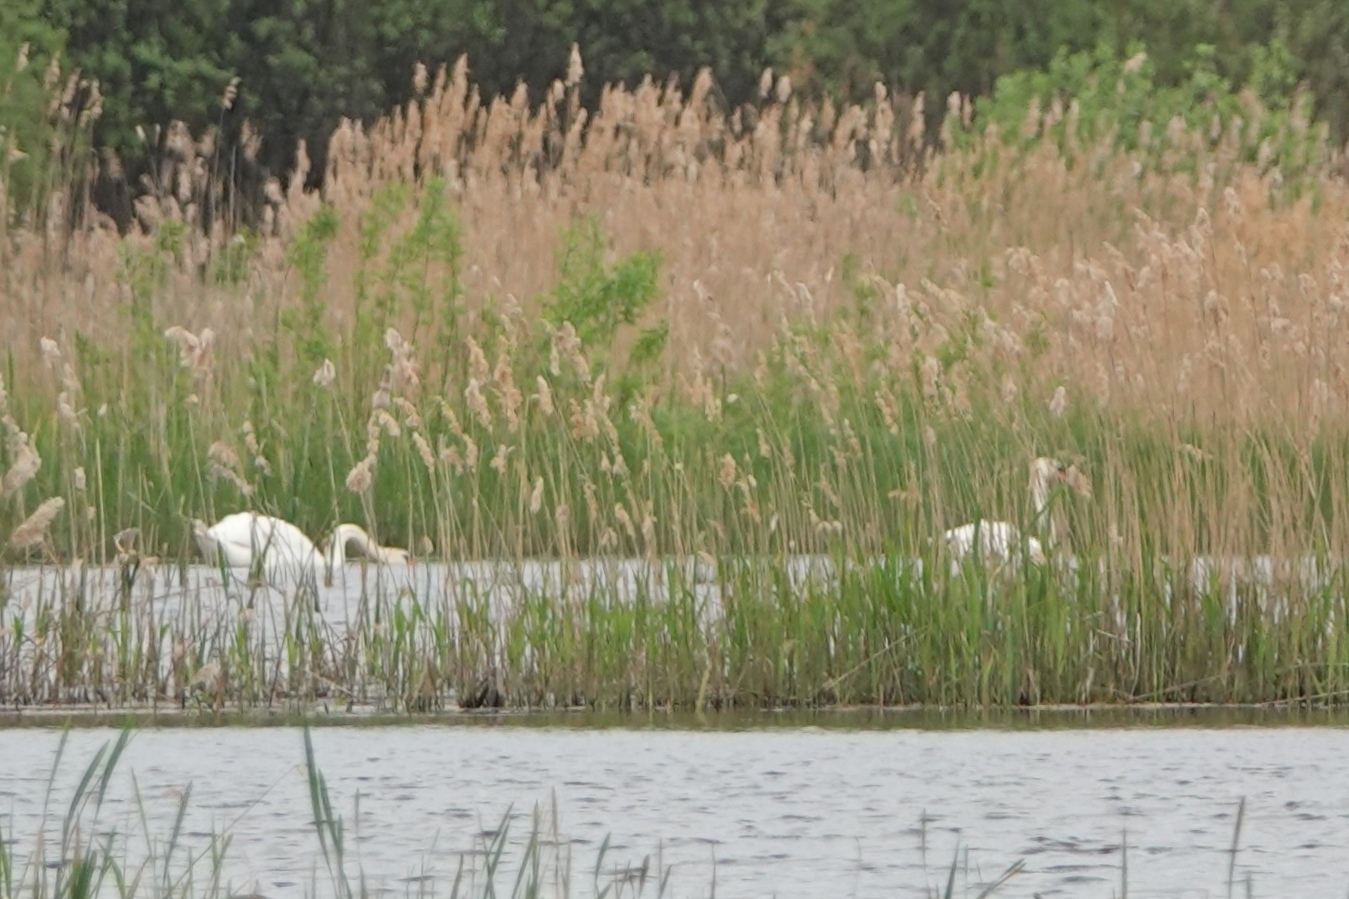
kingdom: Animalia
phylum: Chordata
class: Aves
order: Anseriformes
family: Anatidae
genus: Cygnus
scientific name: Cygnus olor
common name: Mute swan
